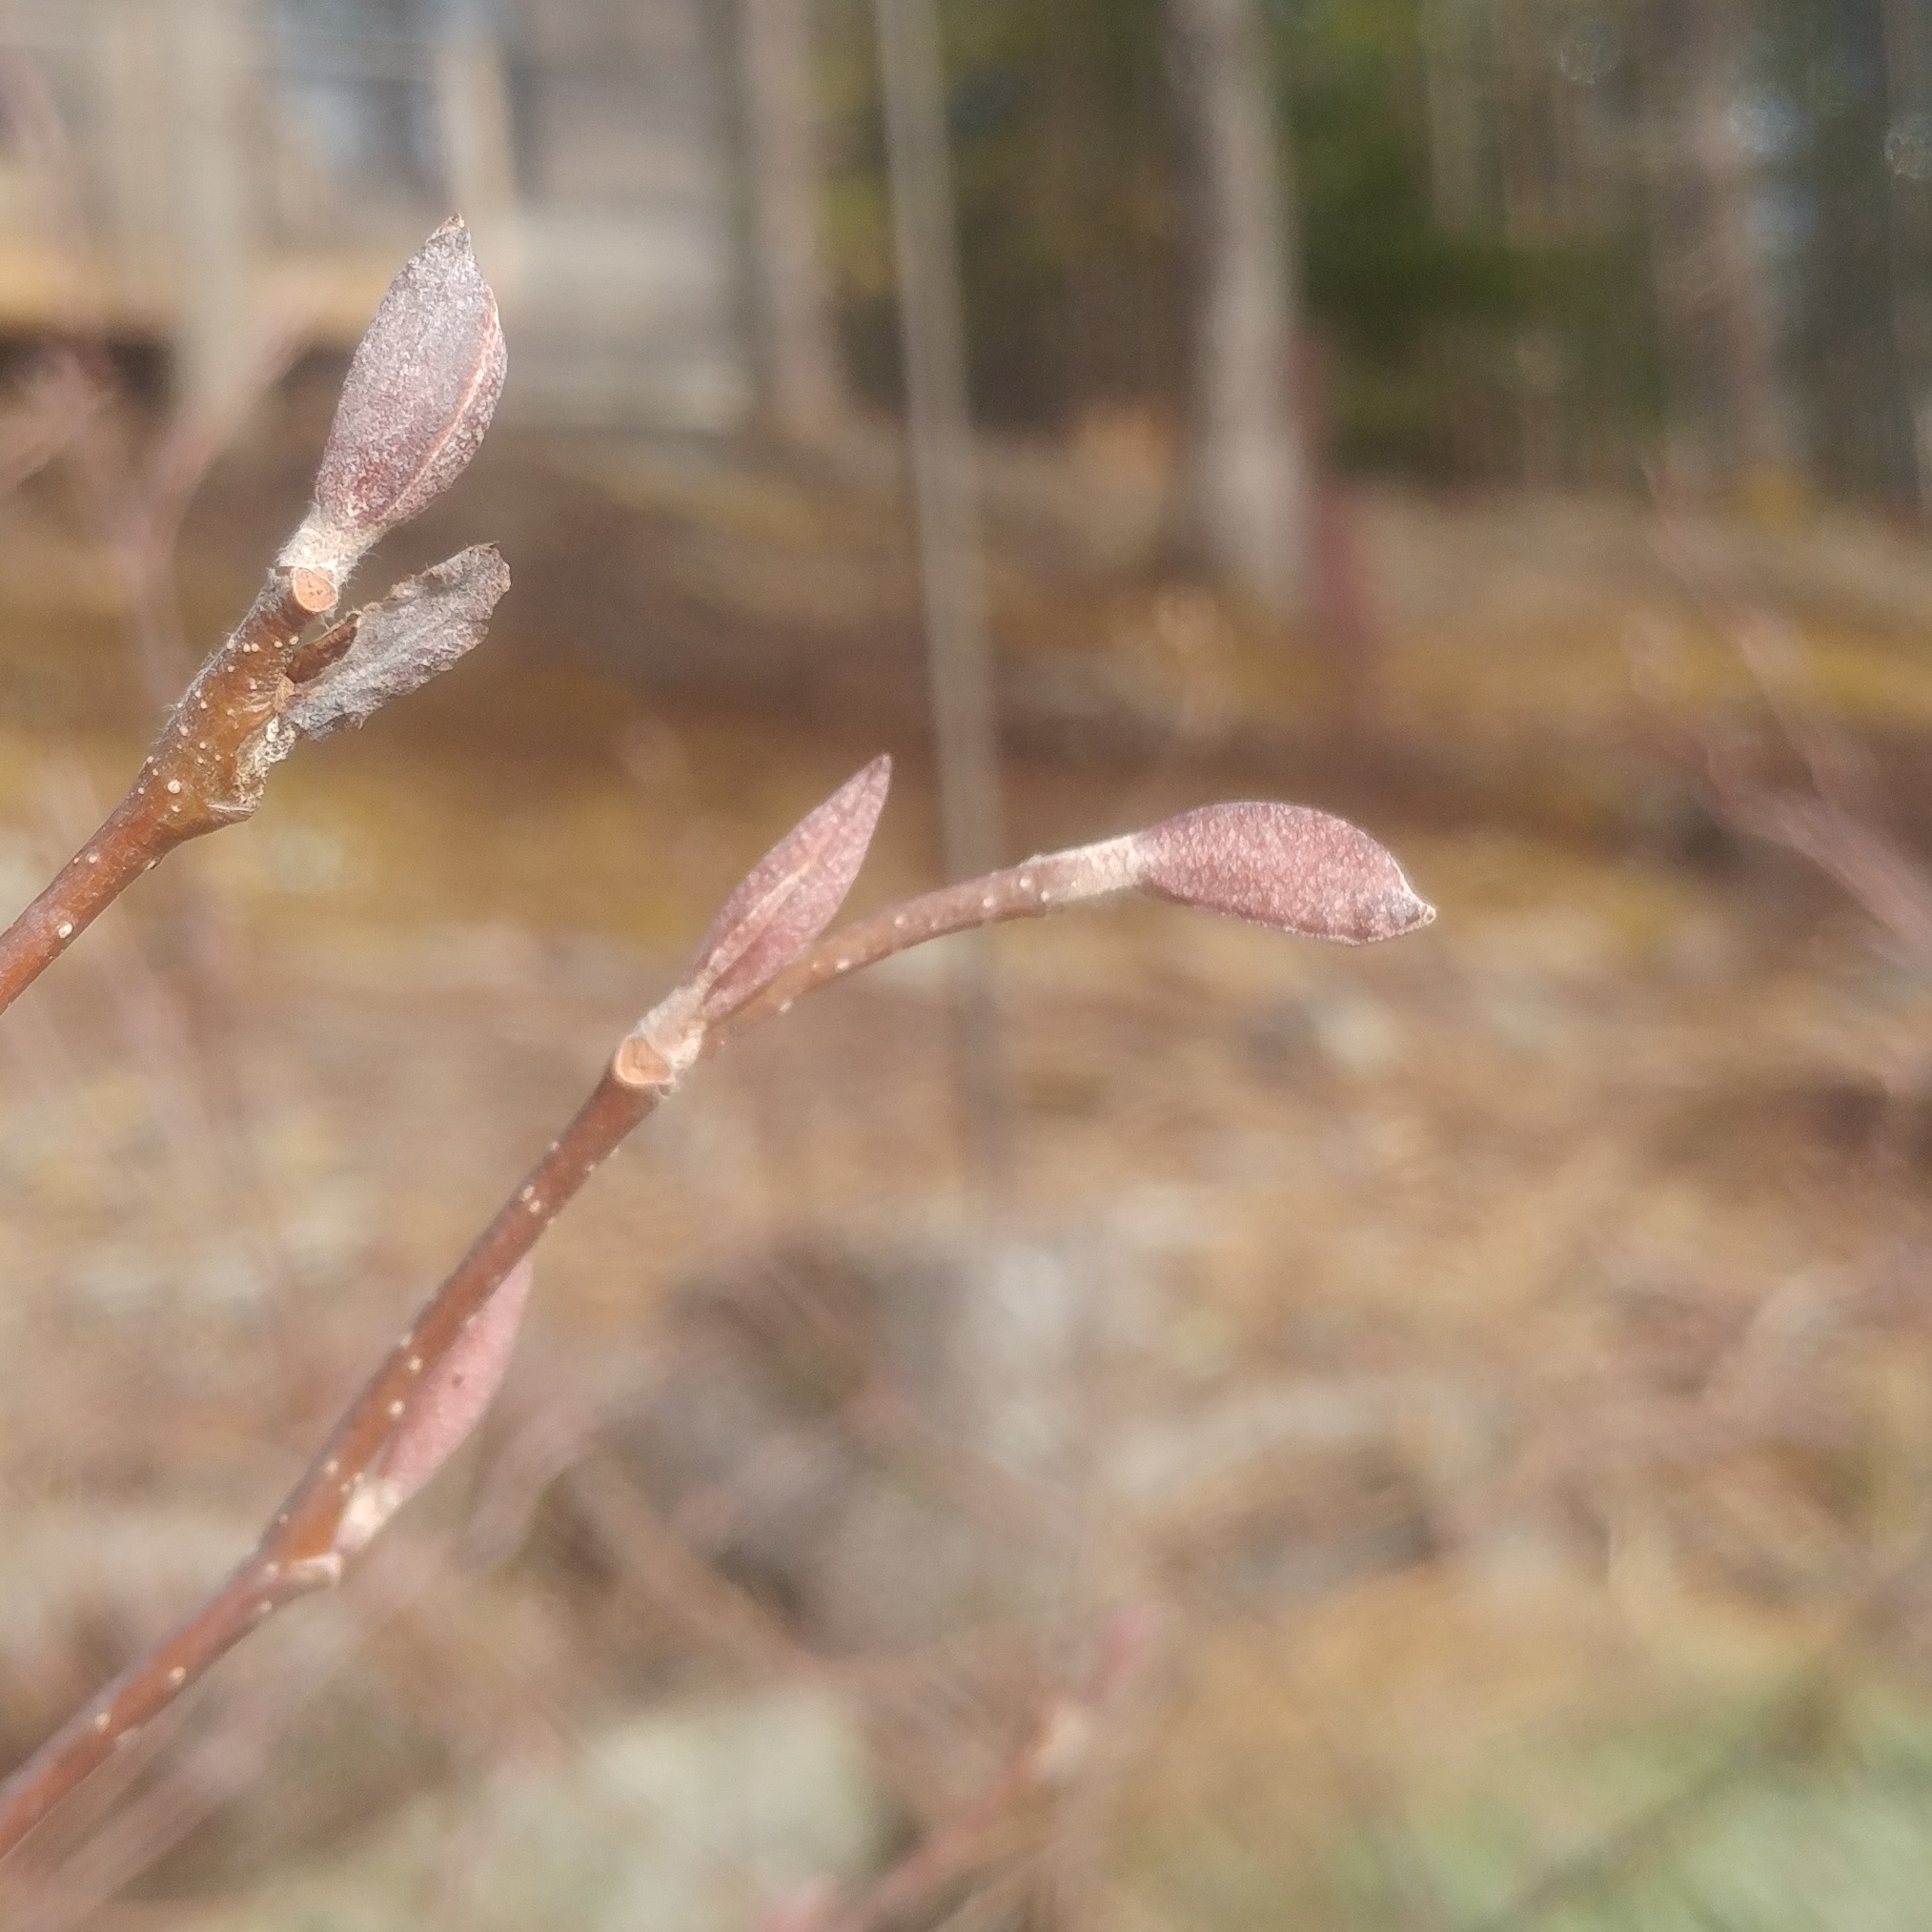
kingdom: Plantae
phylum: Tracheophyta
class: Magnoliopsida
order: Fagales
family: Betulaceae
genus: Alnus
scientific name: Alnus incana
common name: Grey alder
